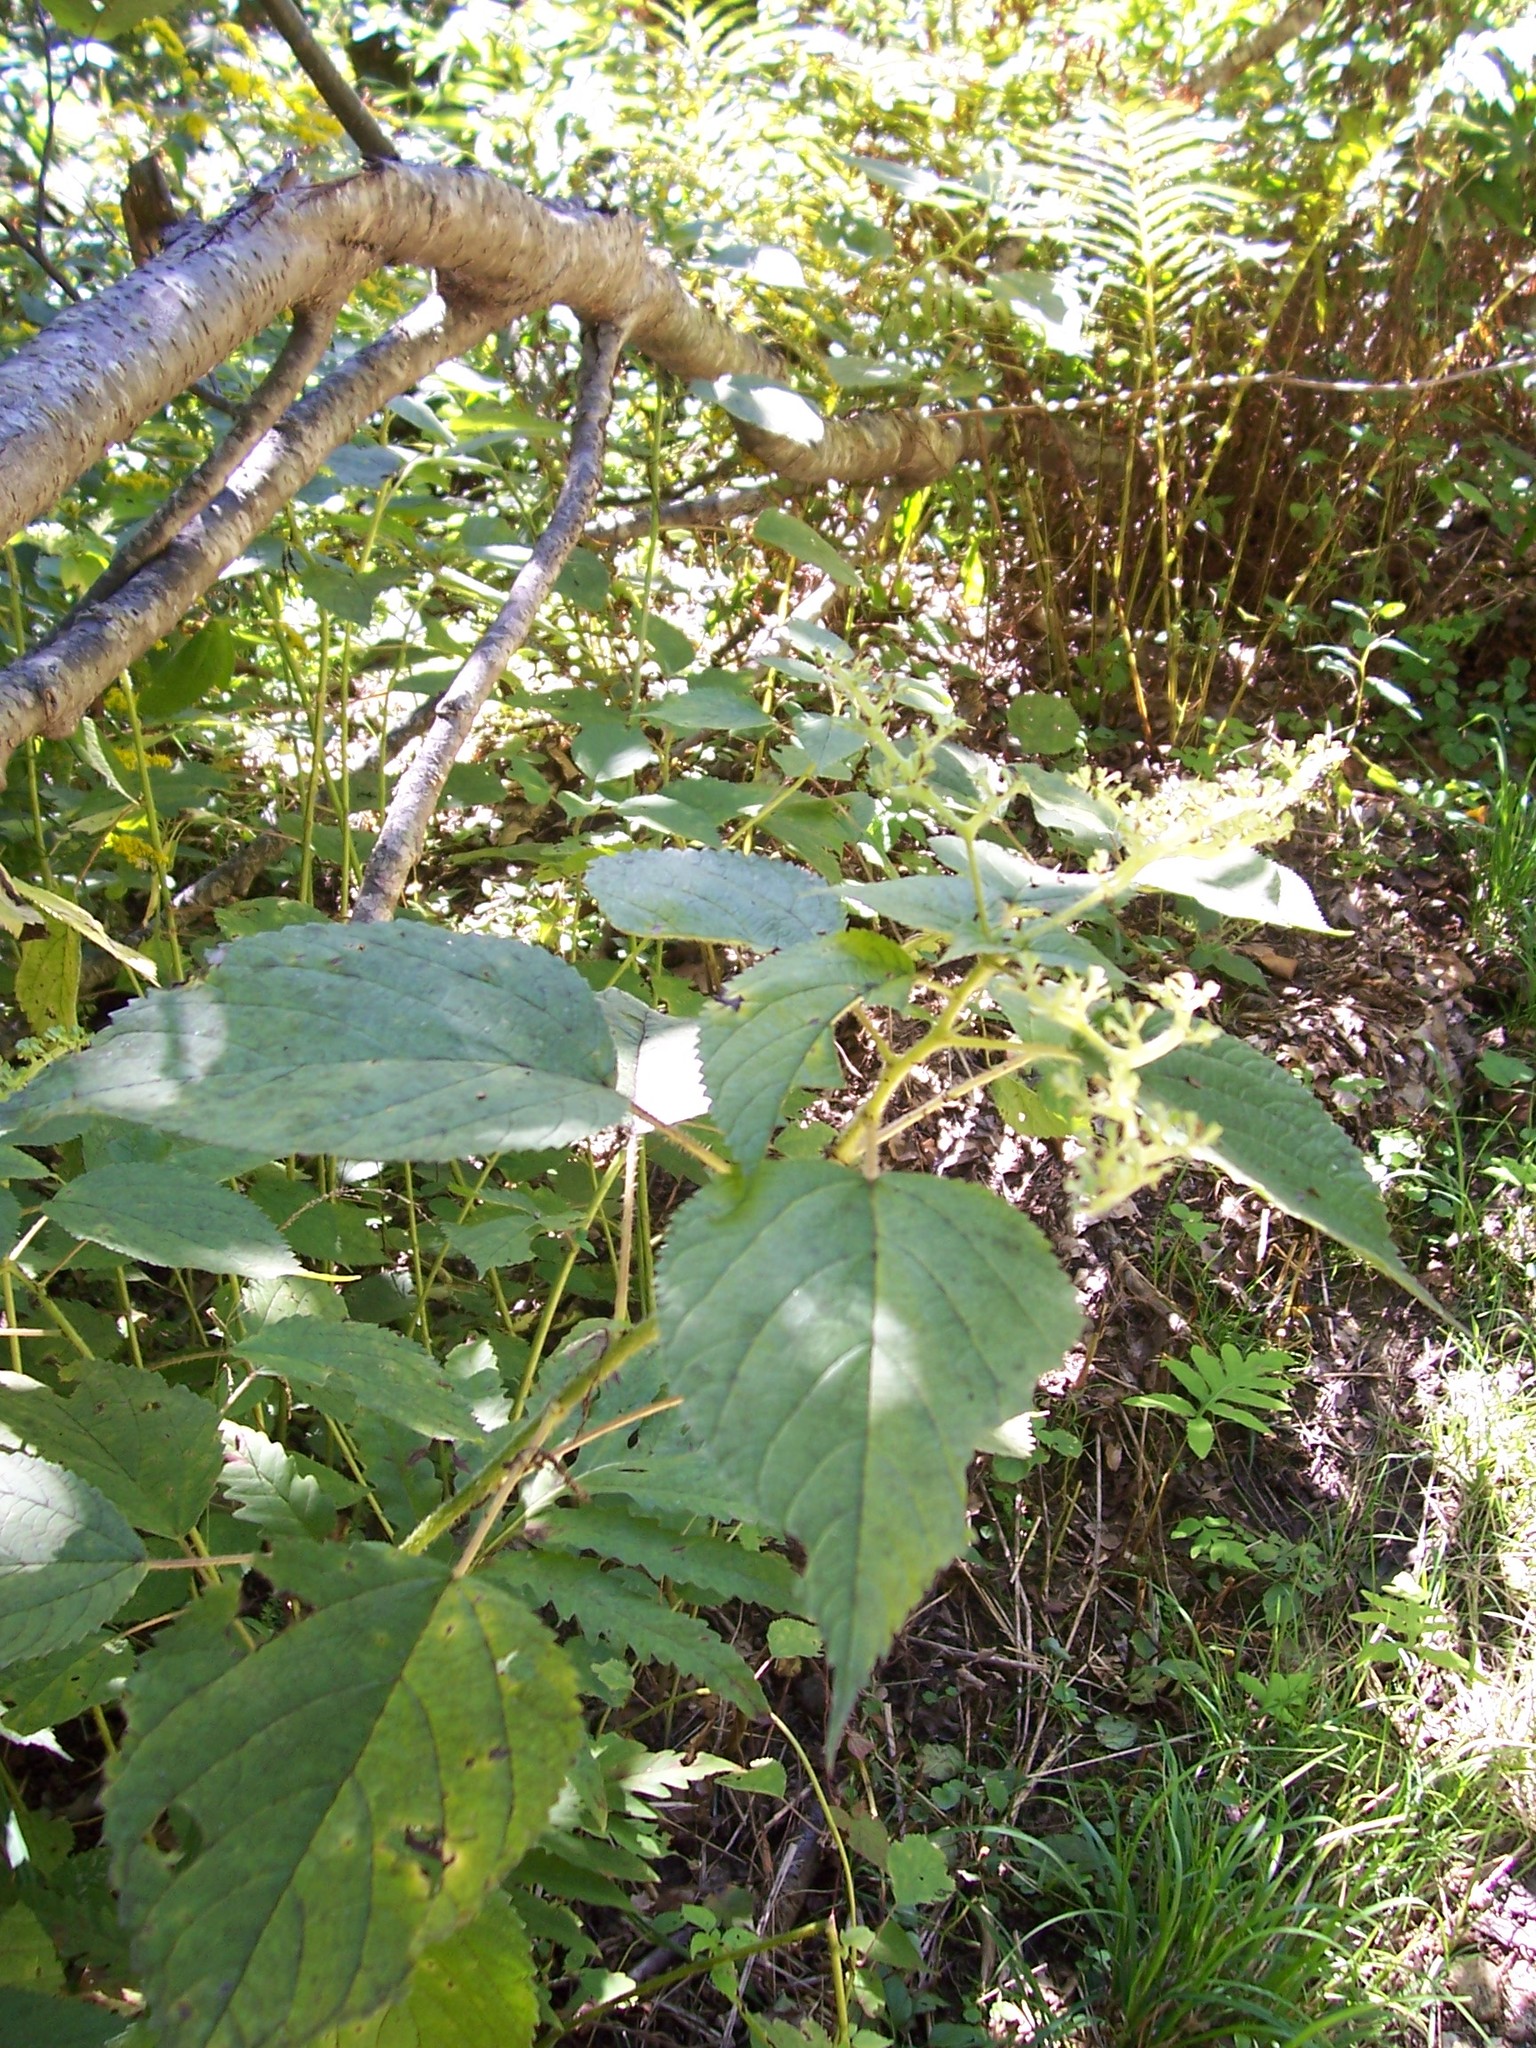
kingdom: Plantae
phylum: Tracheophyta
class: Magnoliopsida
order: Rosales
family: Urticaceae
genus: Laportea
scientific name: Laportea canadensis
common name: Canada nettle
